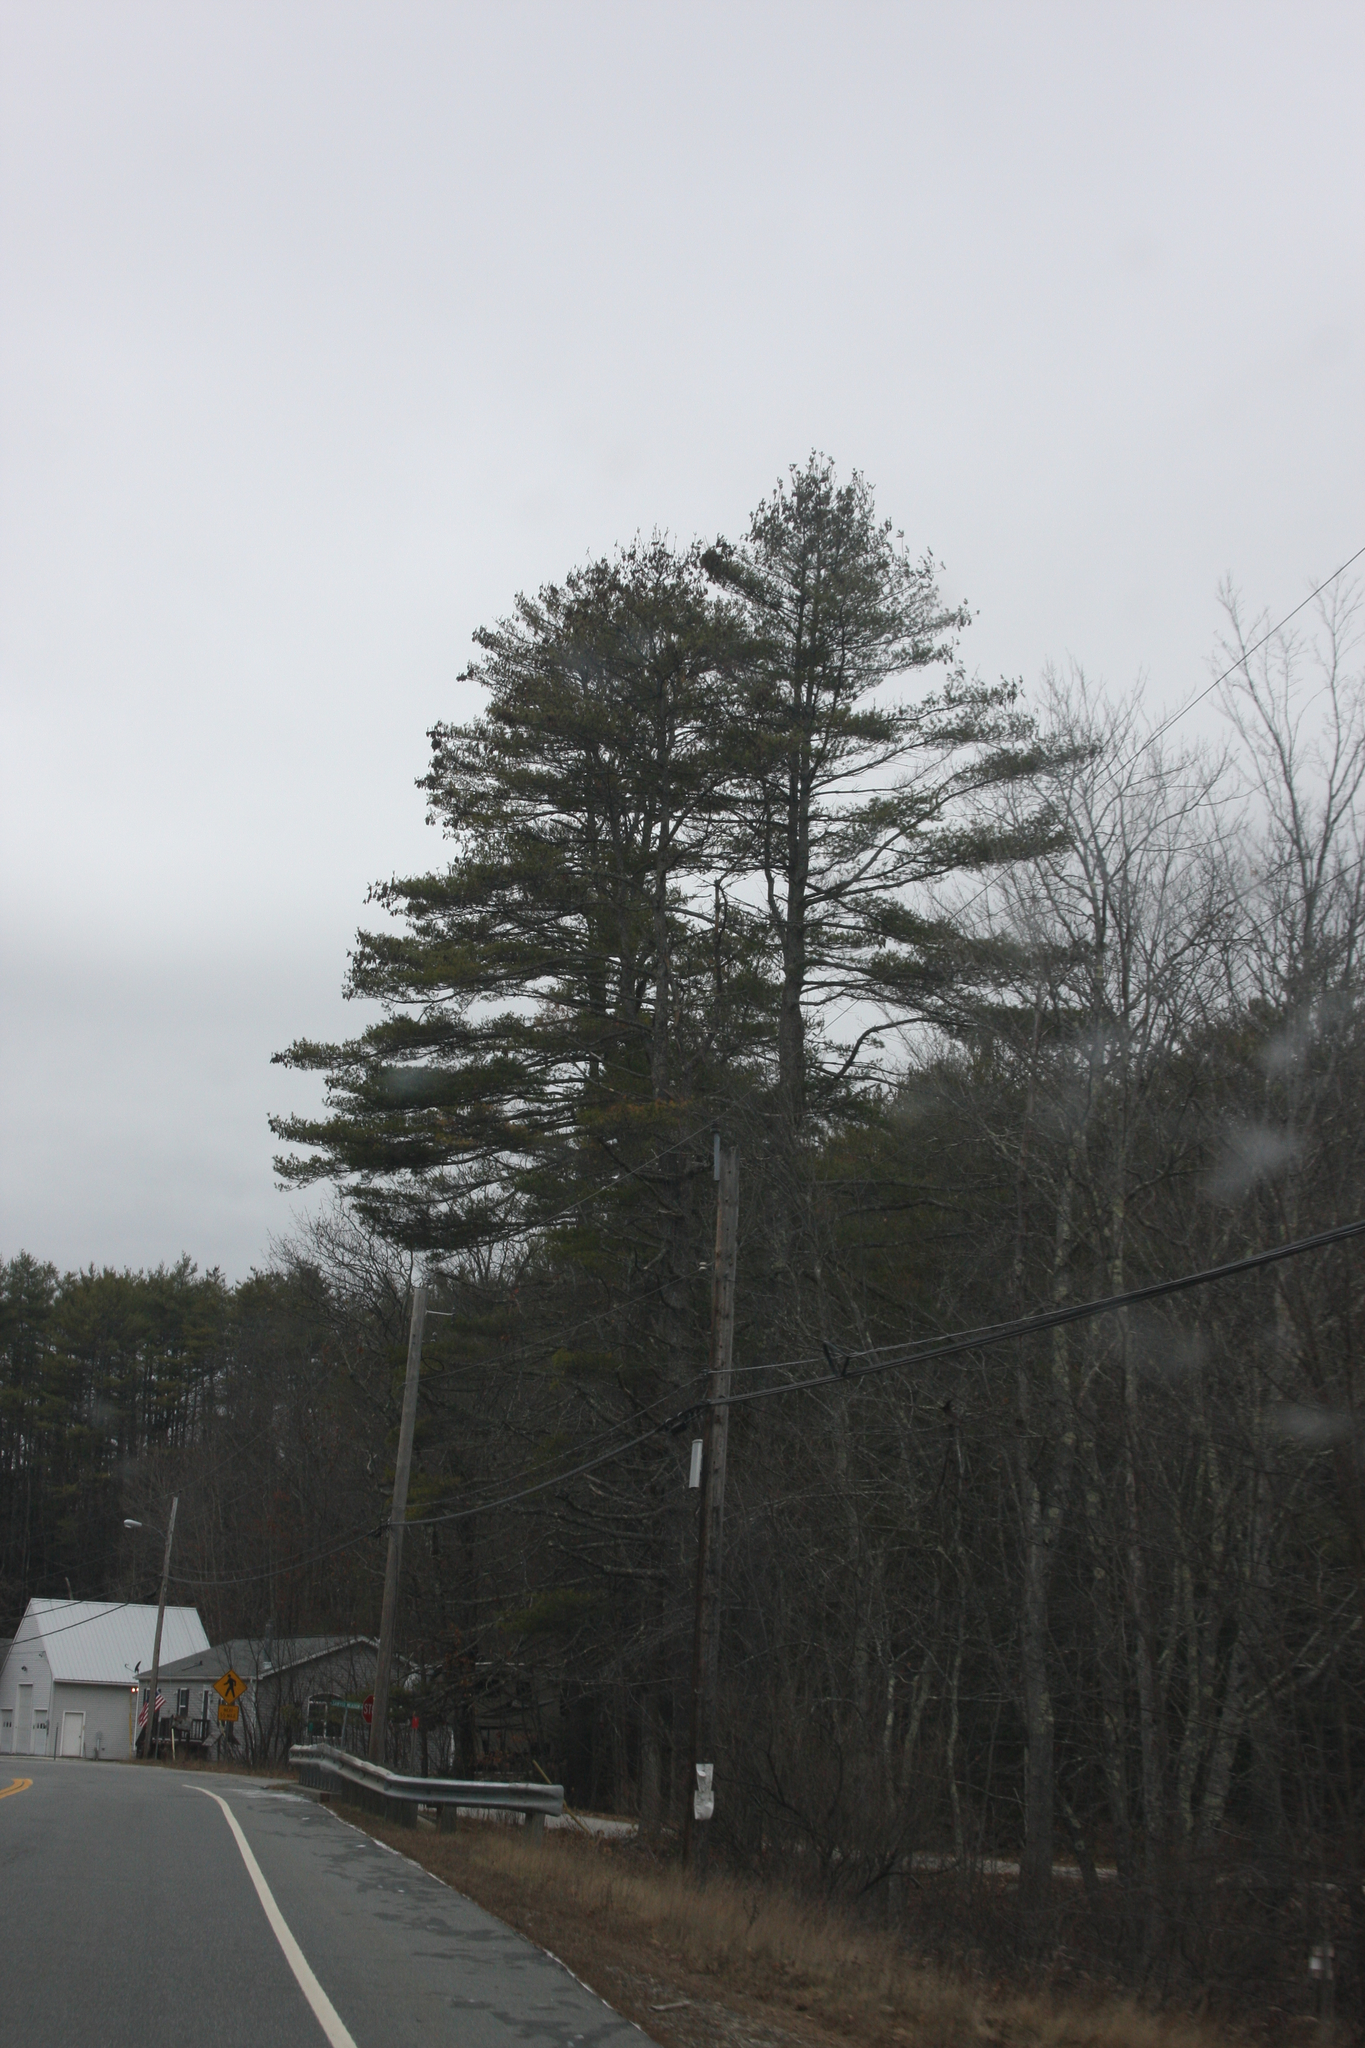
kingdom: Plantae
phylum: Tracheophyta
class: Pinopsida
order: Pinales
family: Pinaceae
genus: Pinus
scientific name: Pinus strobus
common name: Weymouth pine
